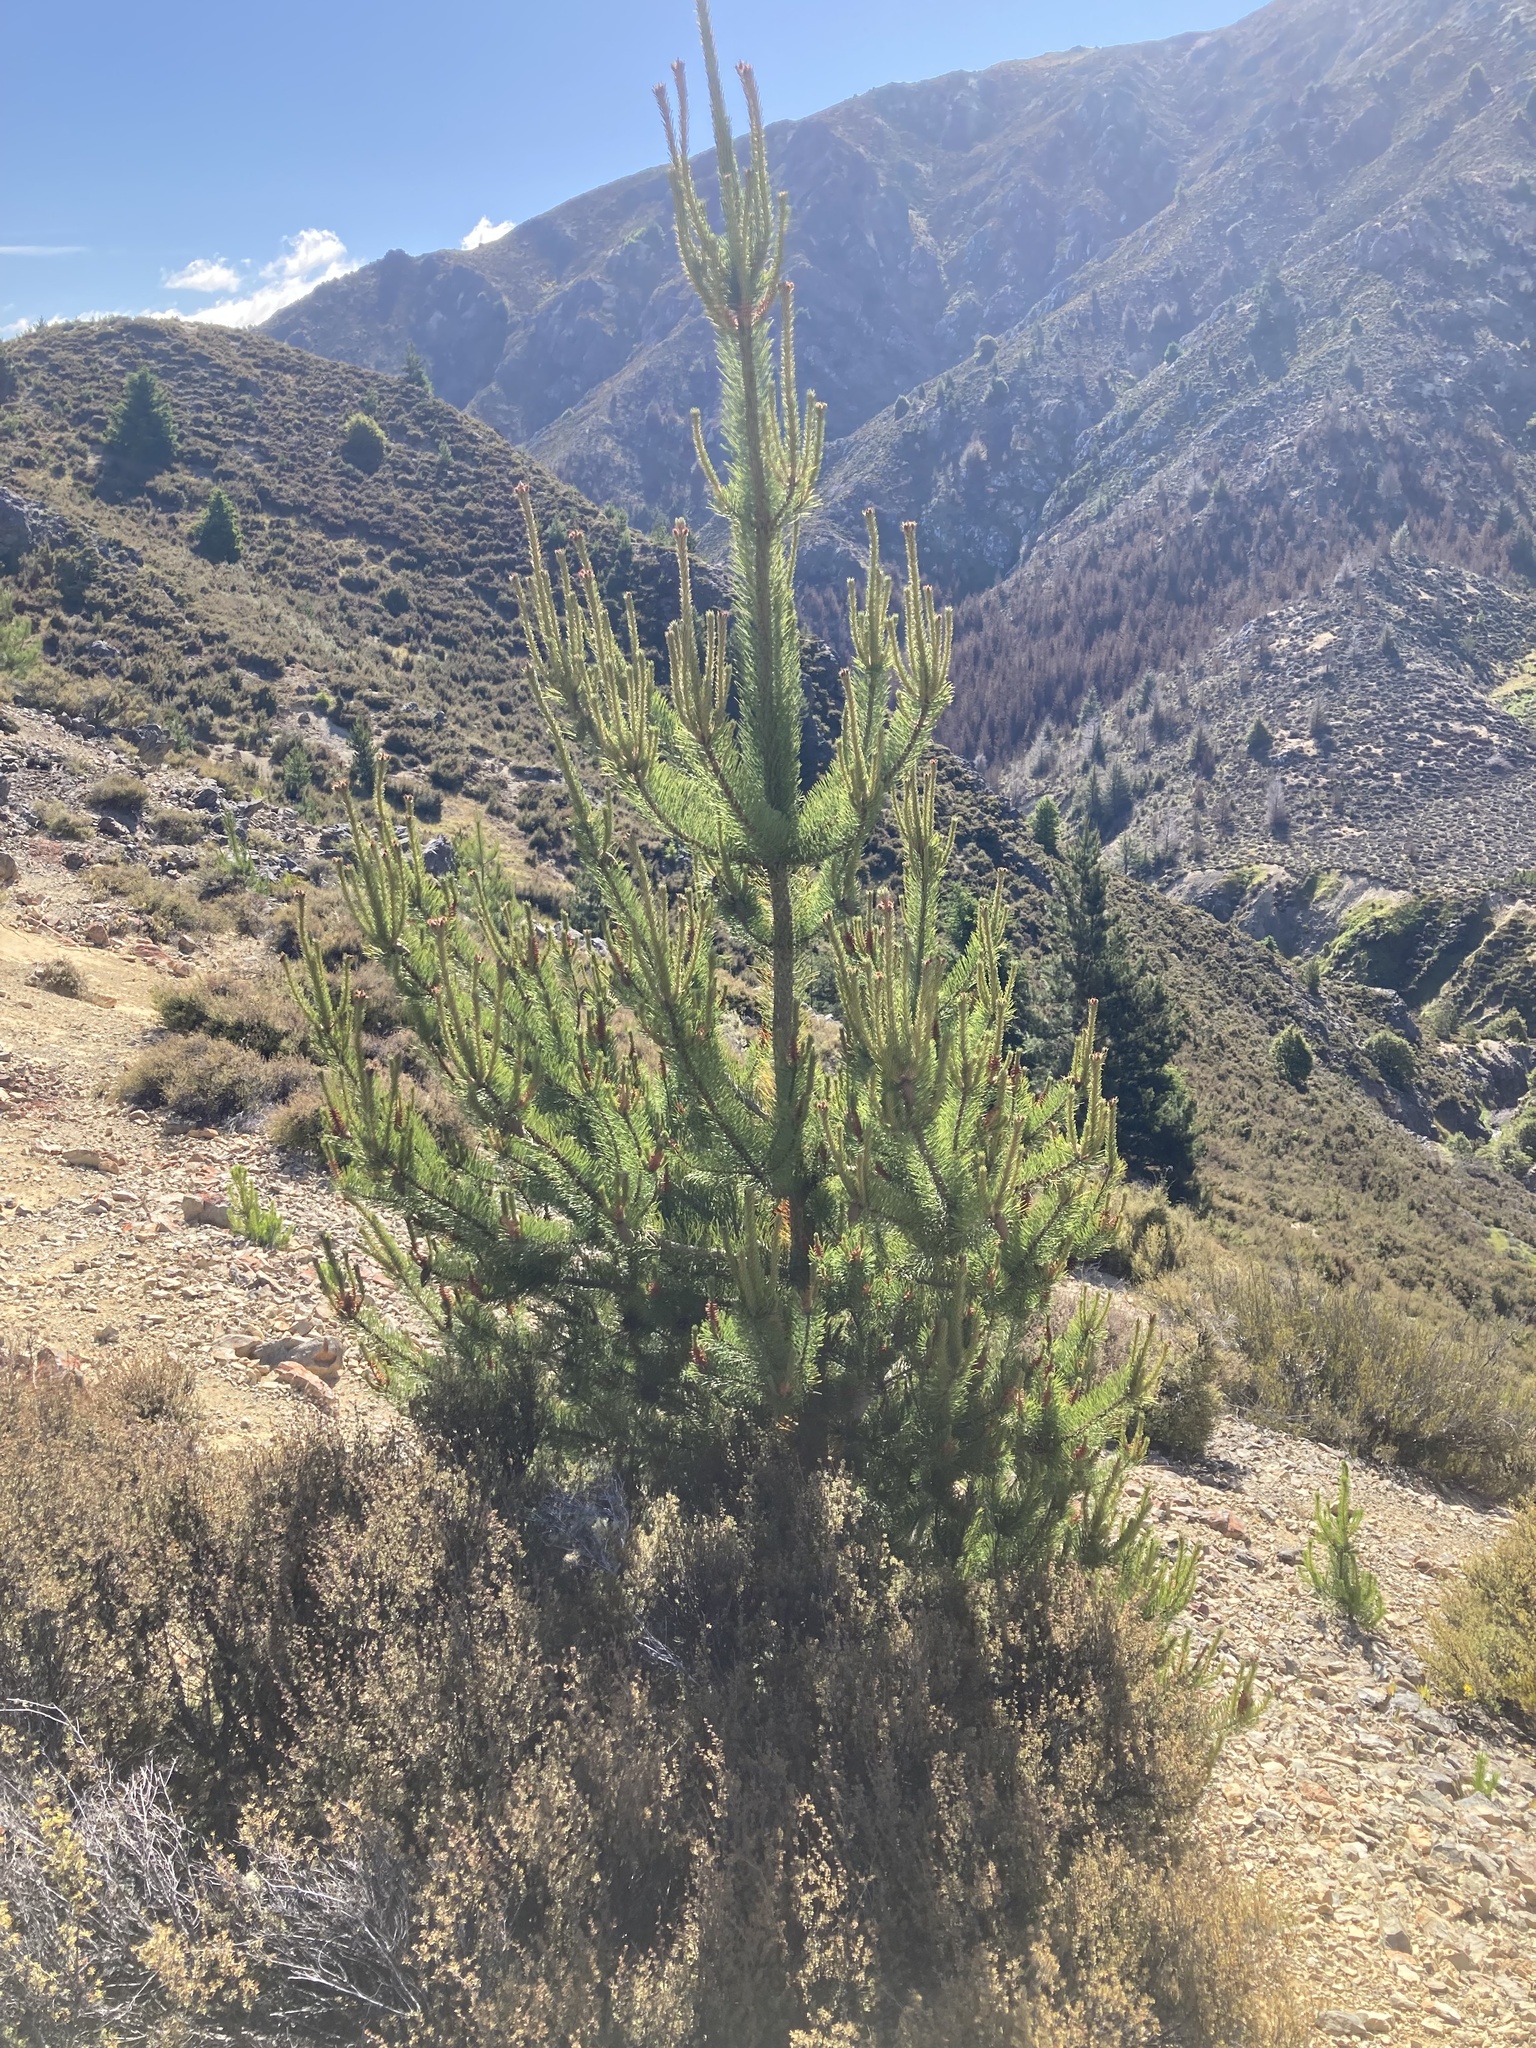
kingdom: Plantae
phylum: Tracheophyta
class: Pinopsida
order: Pinales
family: Pinaceae
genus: Pinus
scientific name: Pinus contorta
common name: Lodgepole pine
